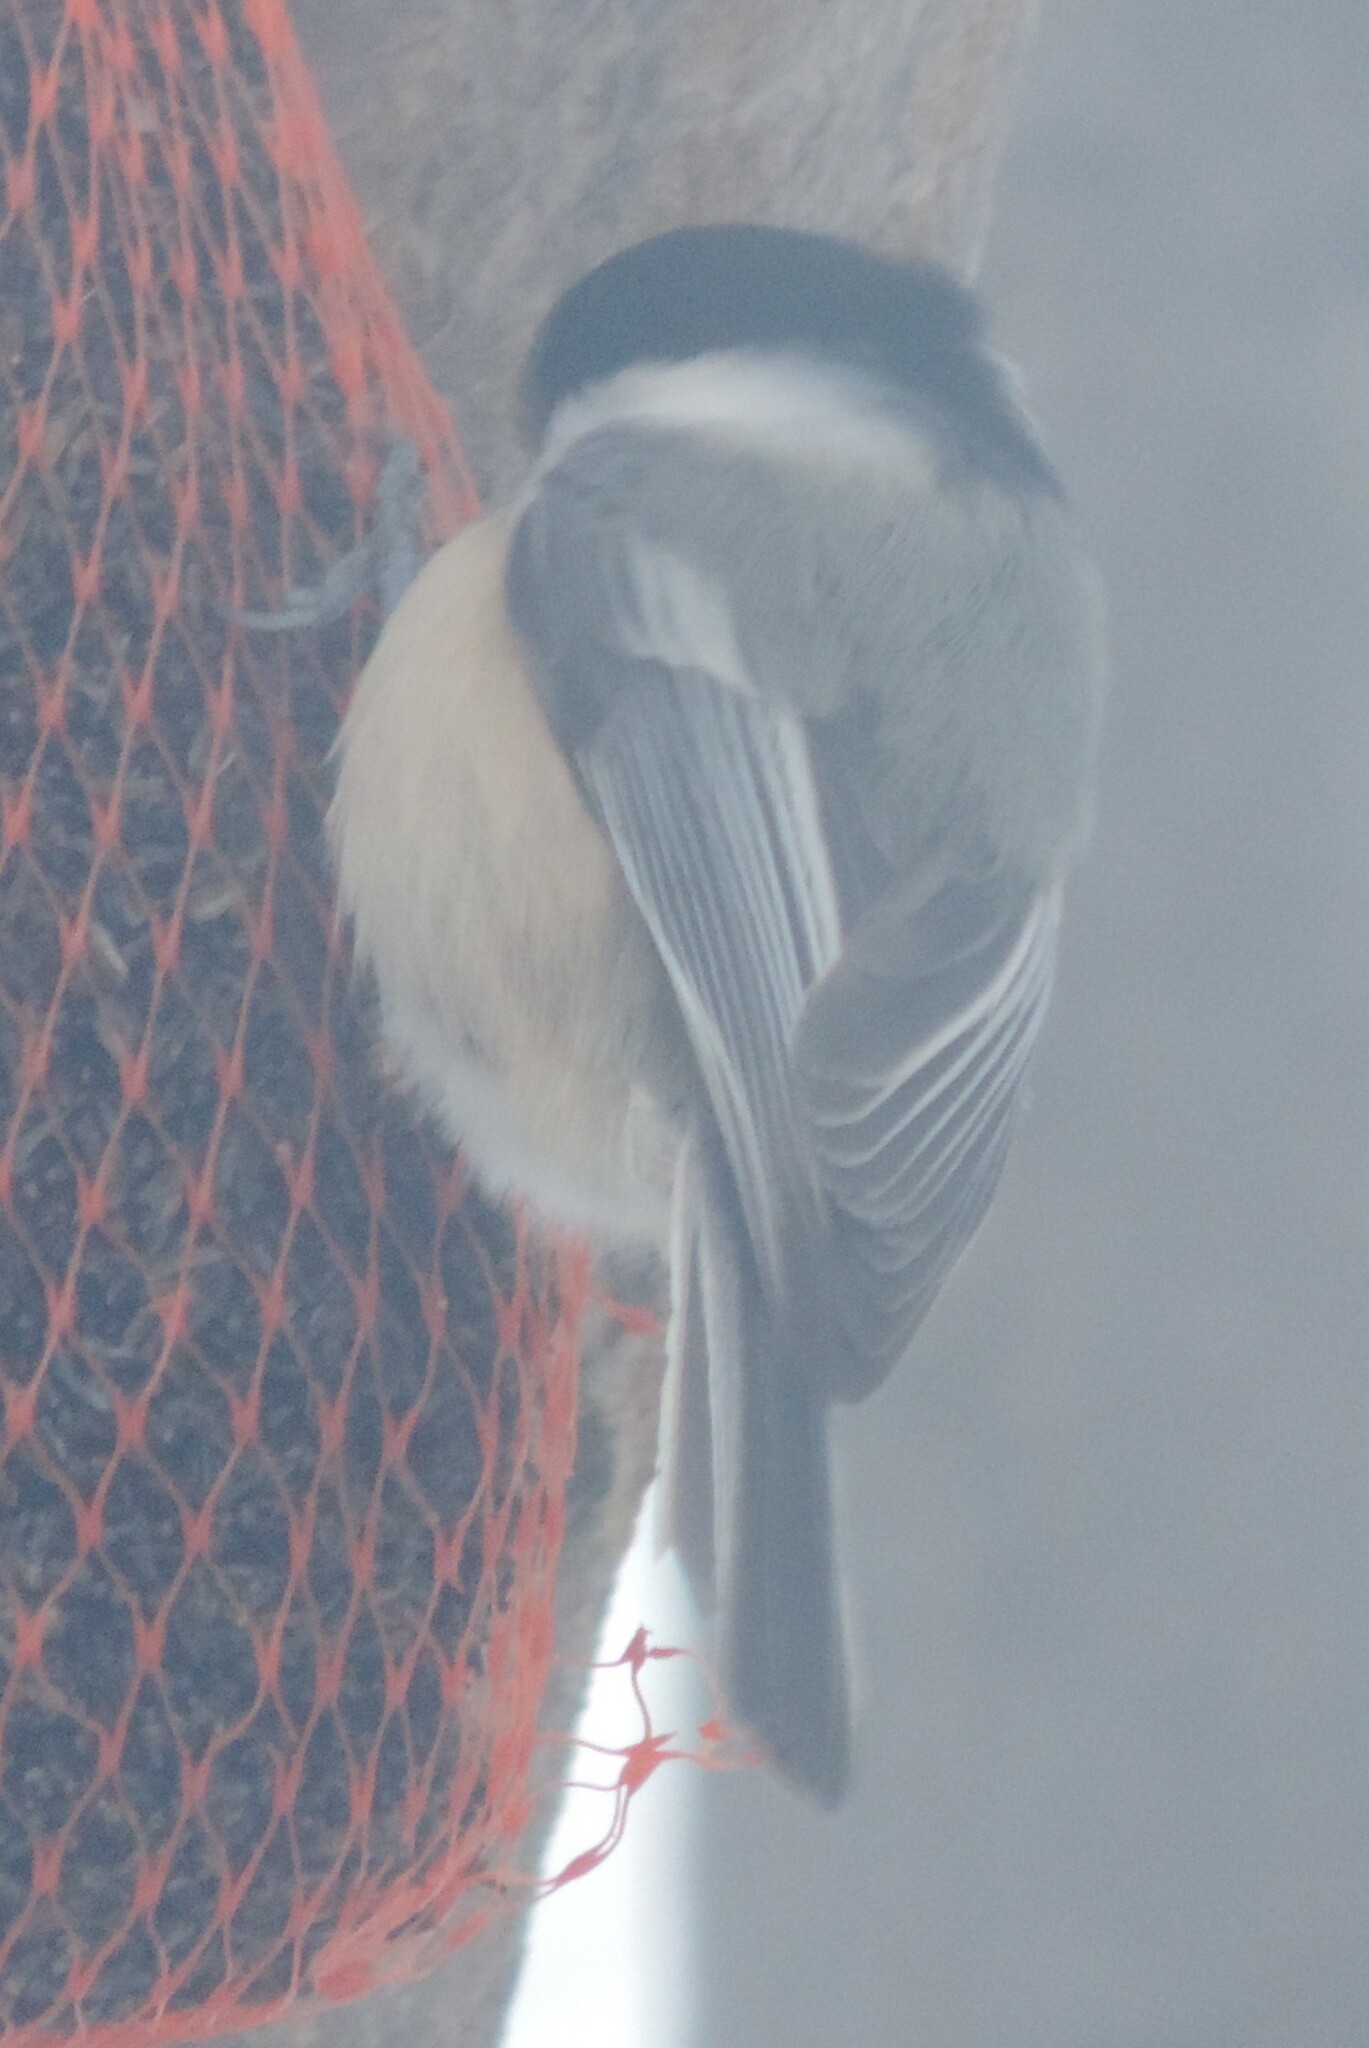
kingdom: Animalia
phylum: Chordata
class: Aves
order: Passeriformes
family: Paridae
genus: Poecile
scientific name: Poecile atricapillus
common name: Black-capped chickadee
